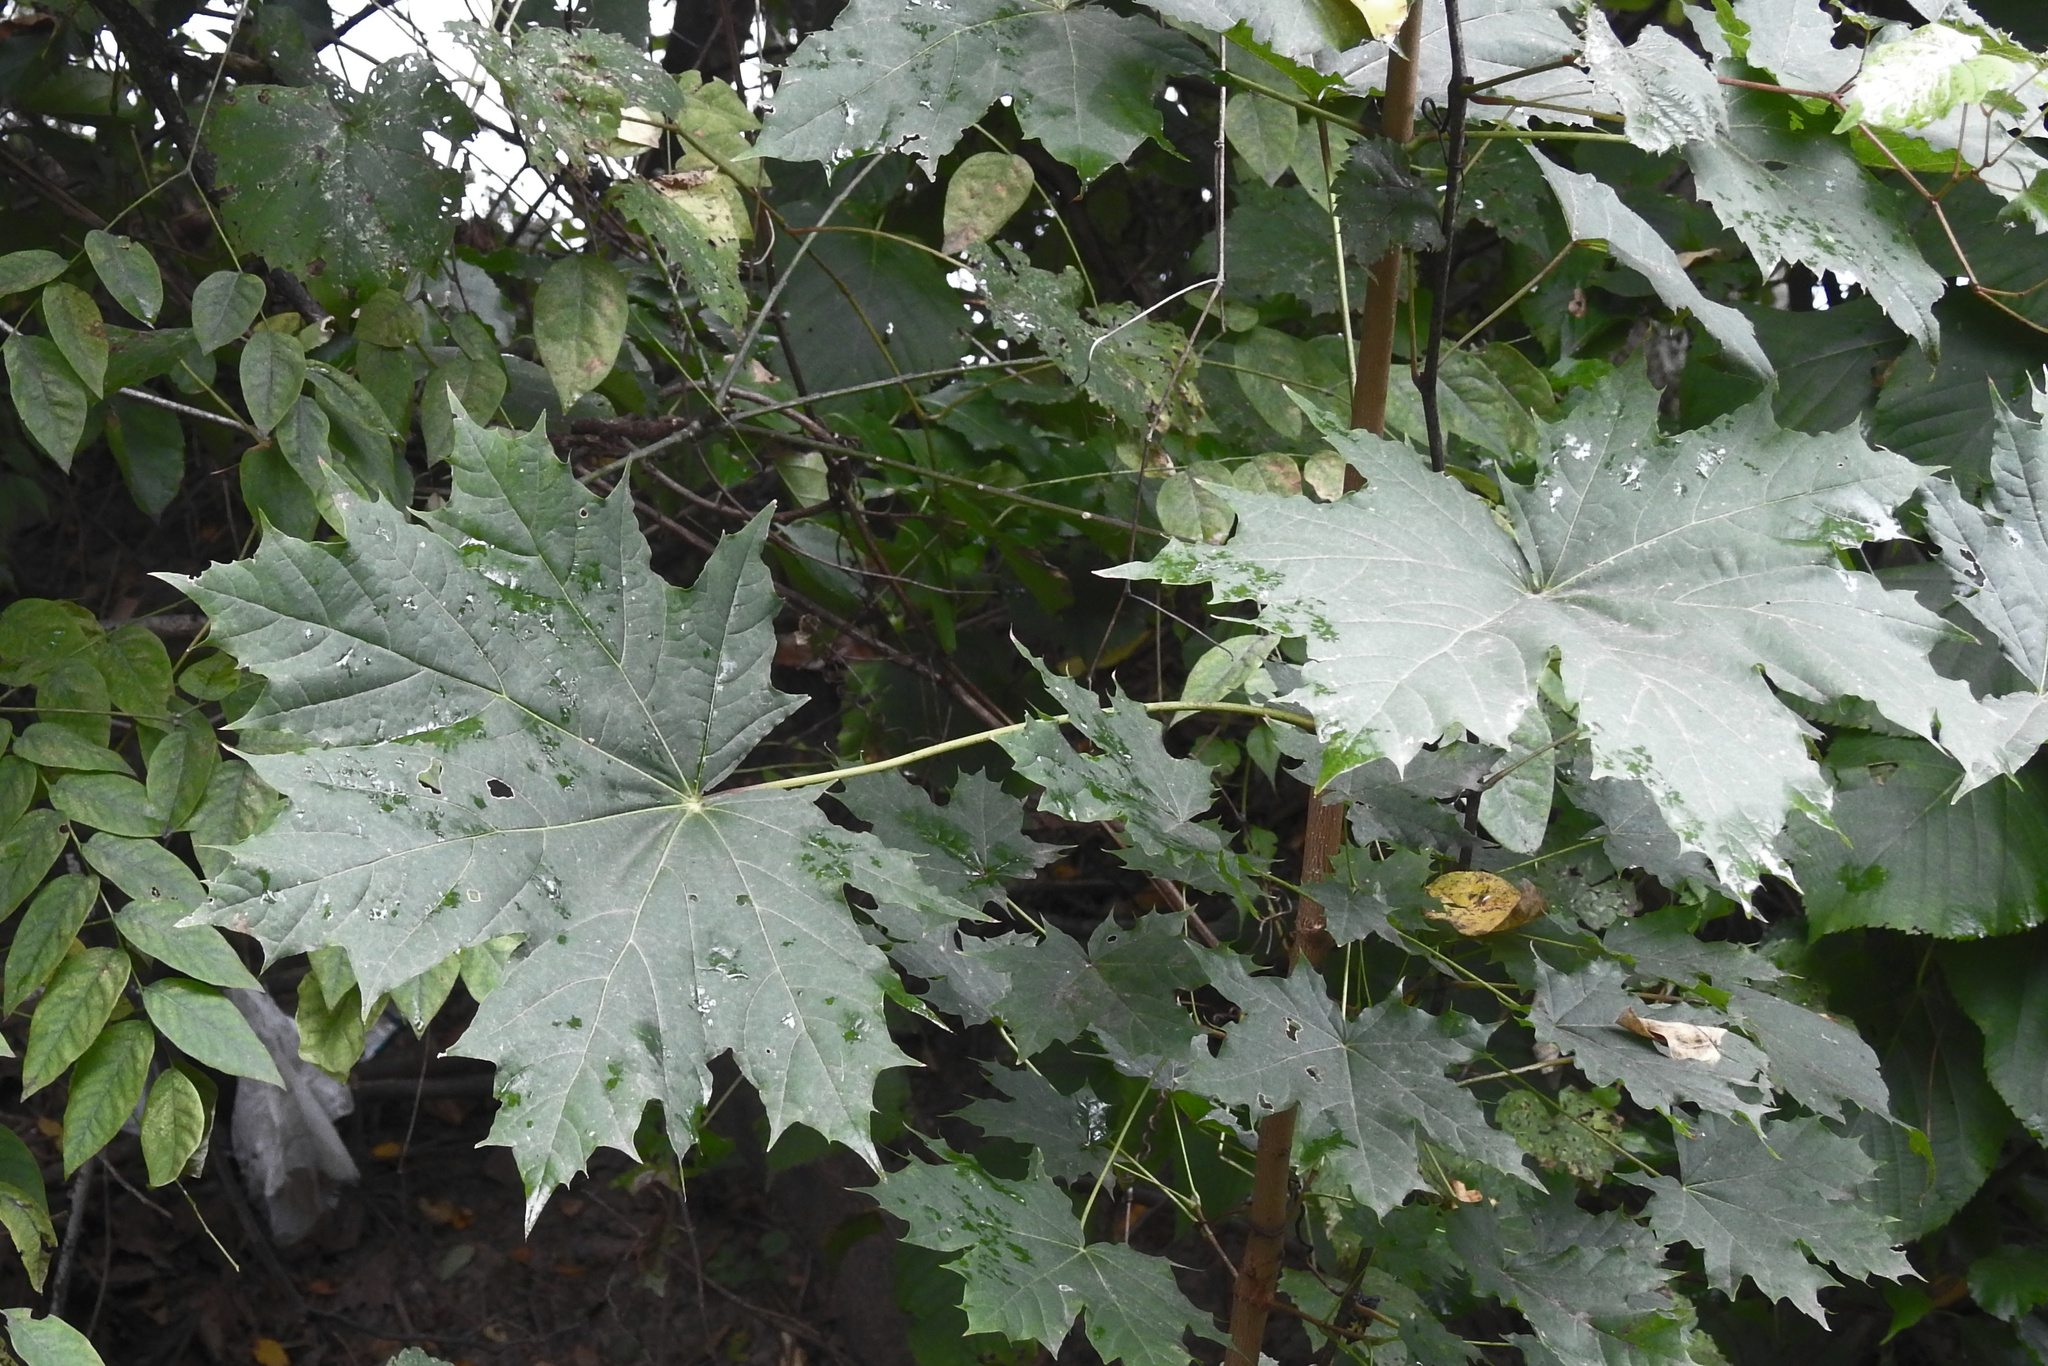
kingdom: Plantae
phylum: Tracheophyta
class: Magnoliopsida
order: Sapindales
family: Sapindaceae
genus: Acer
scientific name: Acer platanoides
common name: Norway maple
